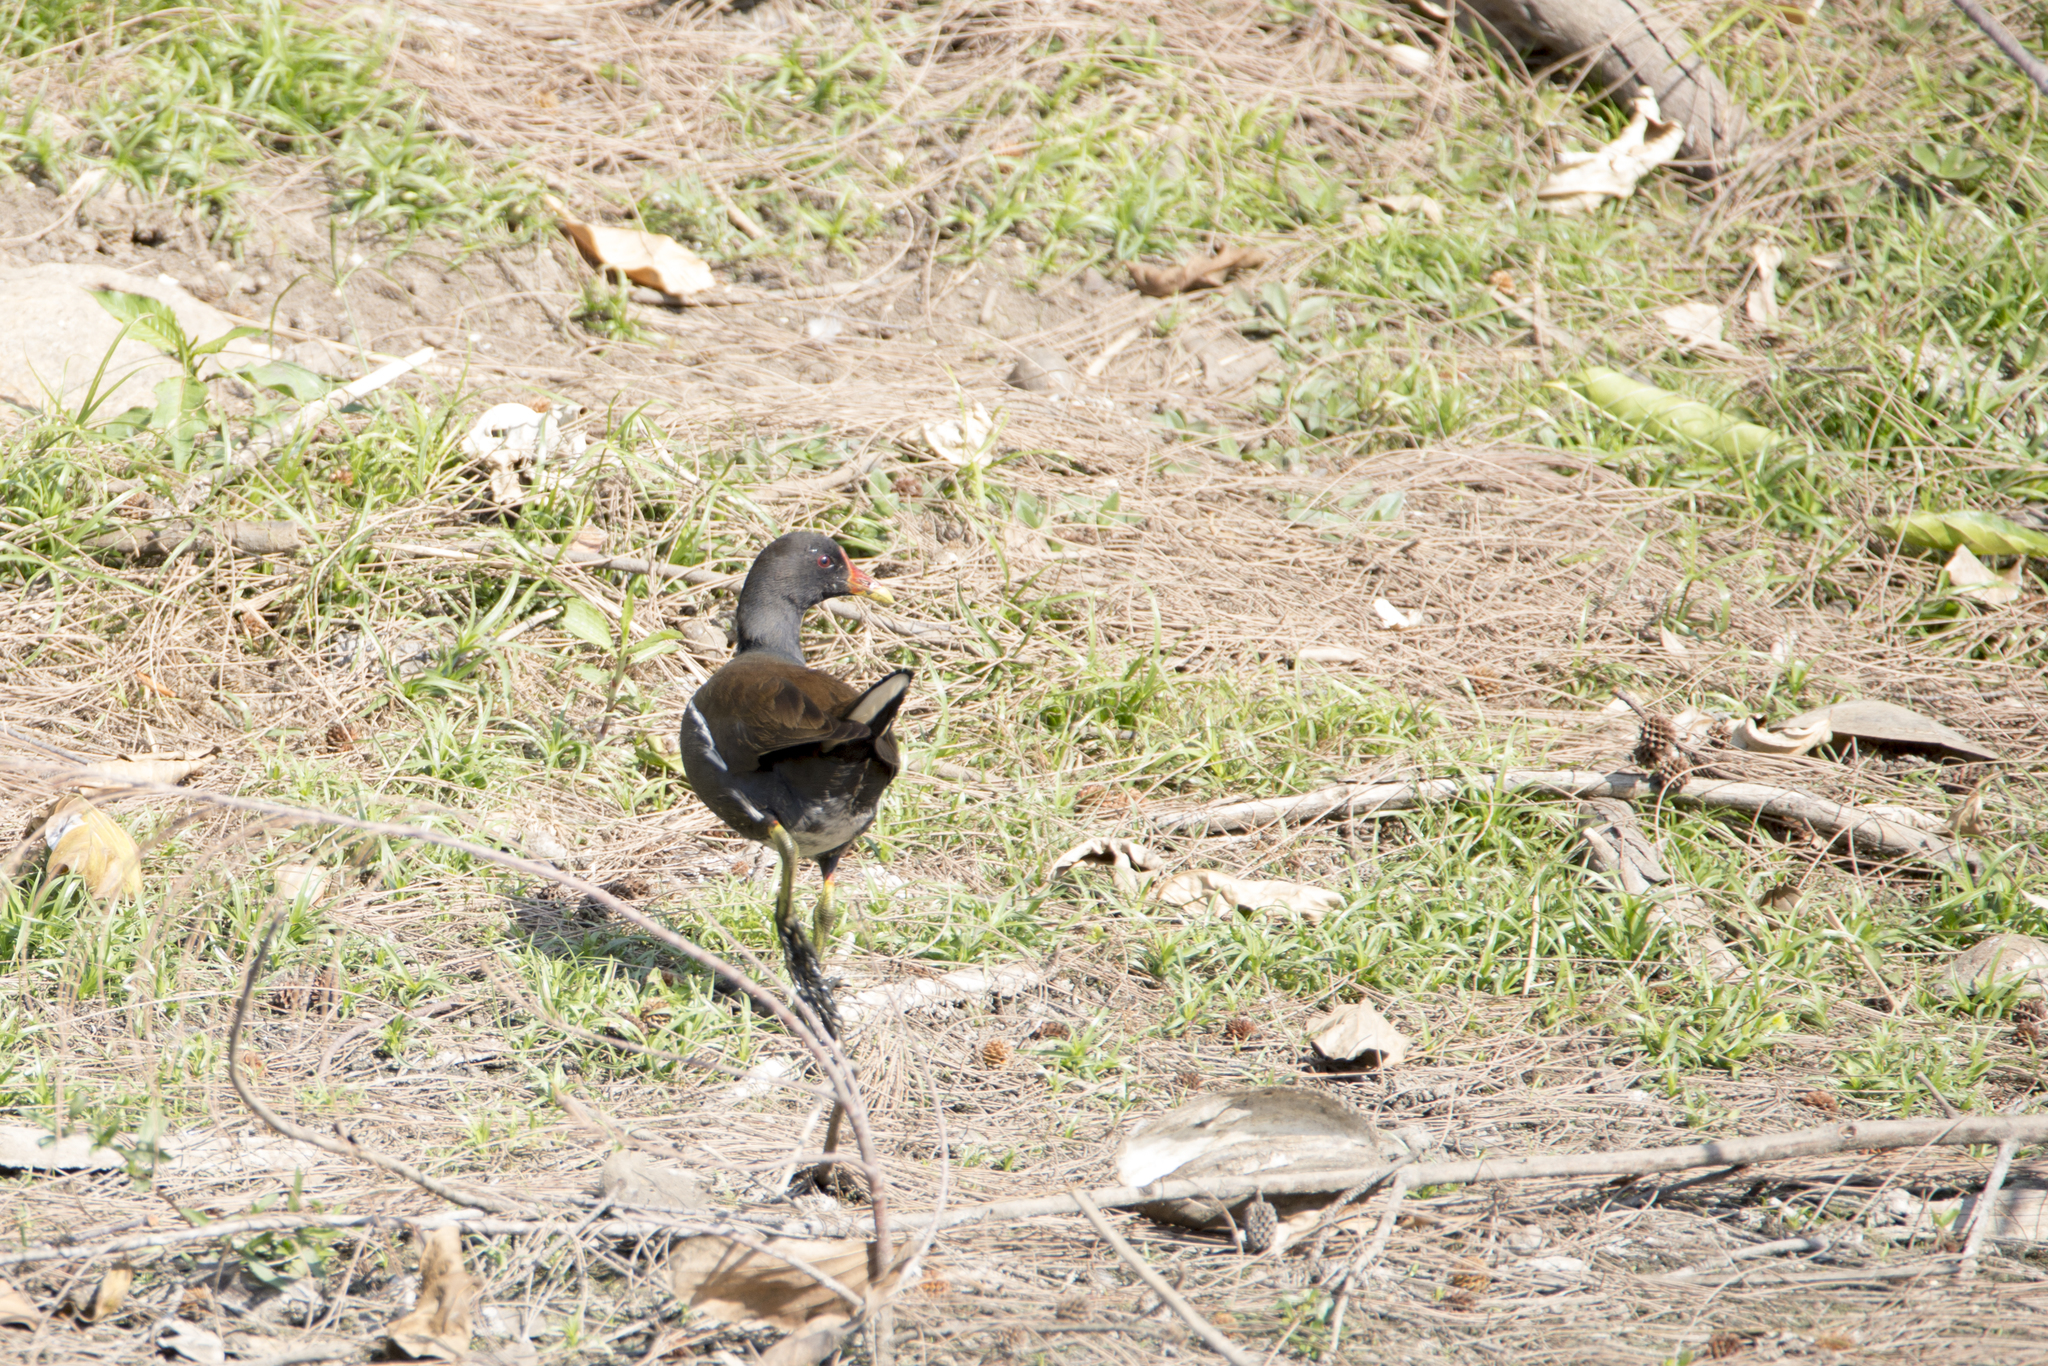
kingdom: Animalia
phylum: Chordata
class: Aves
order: Gruiformes
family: Rallidae
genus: Gallinula
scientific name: Gallinula chloropus
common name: Common moorhen
